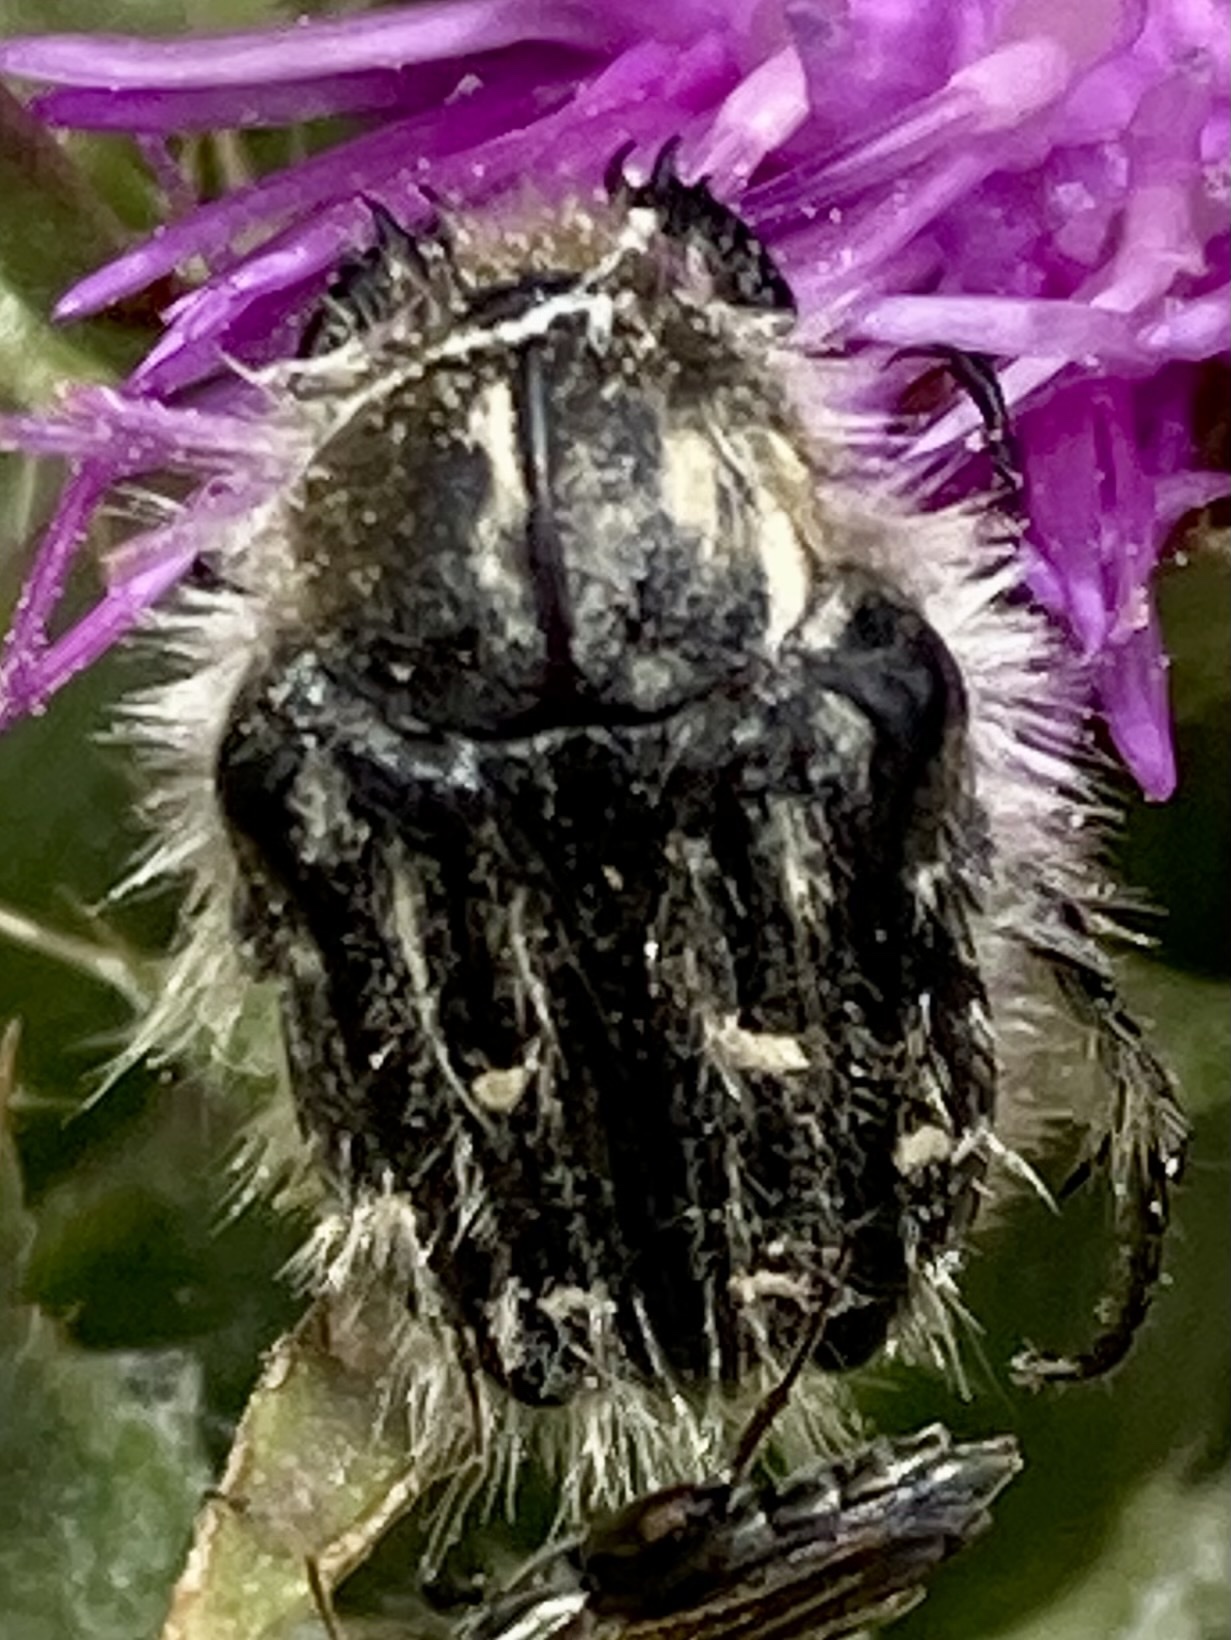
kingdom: Animalia
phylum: Arthropoda
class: Insecta
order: Coleoptera
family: Scarabaeidae
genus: Tropinota
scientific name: Tropinota
